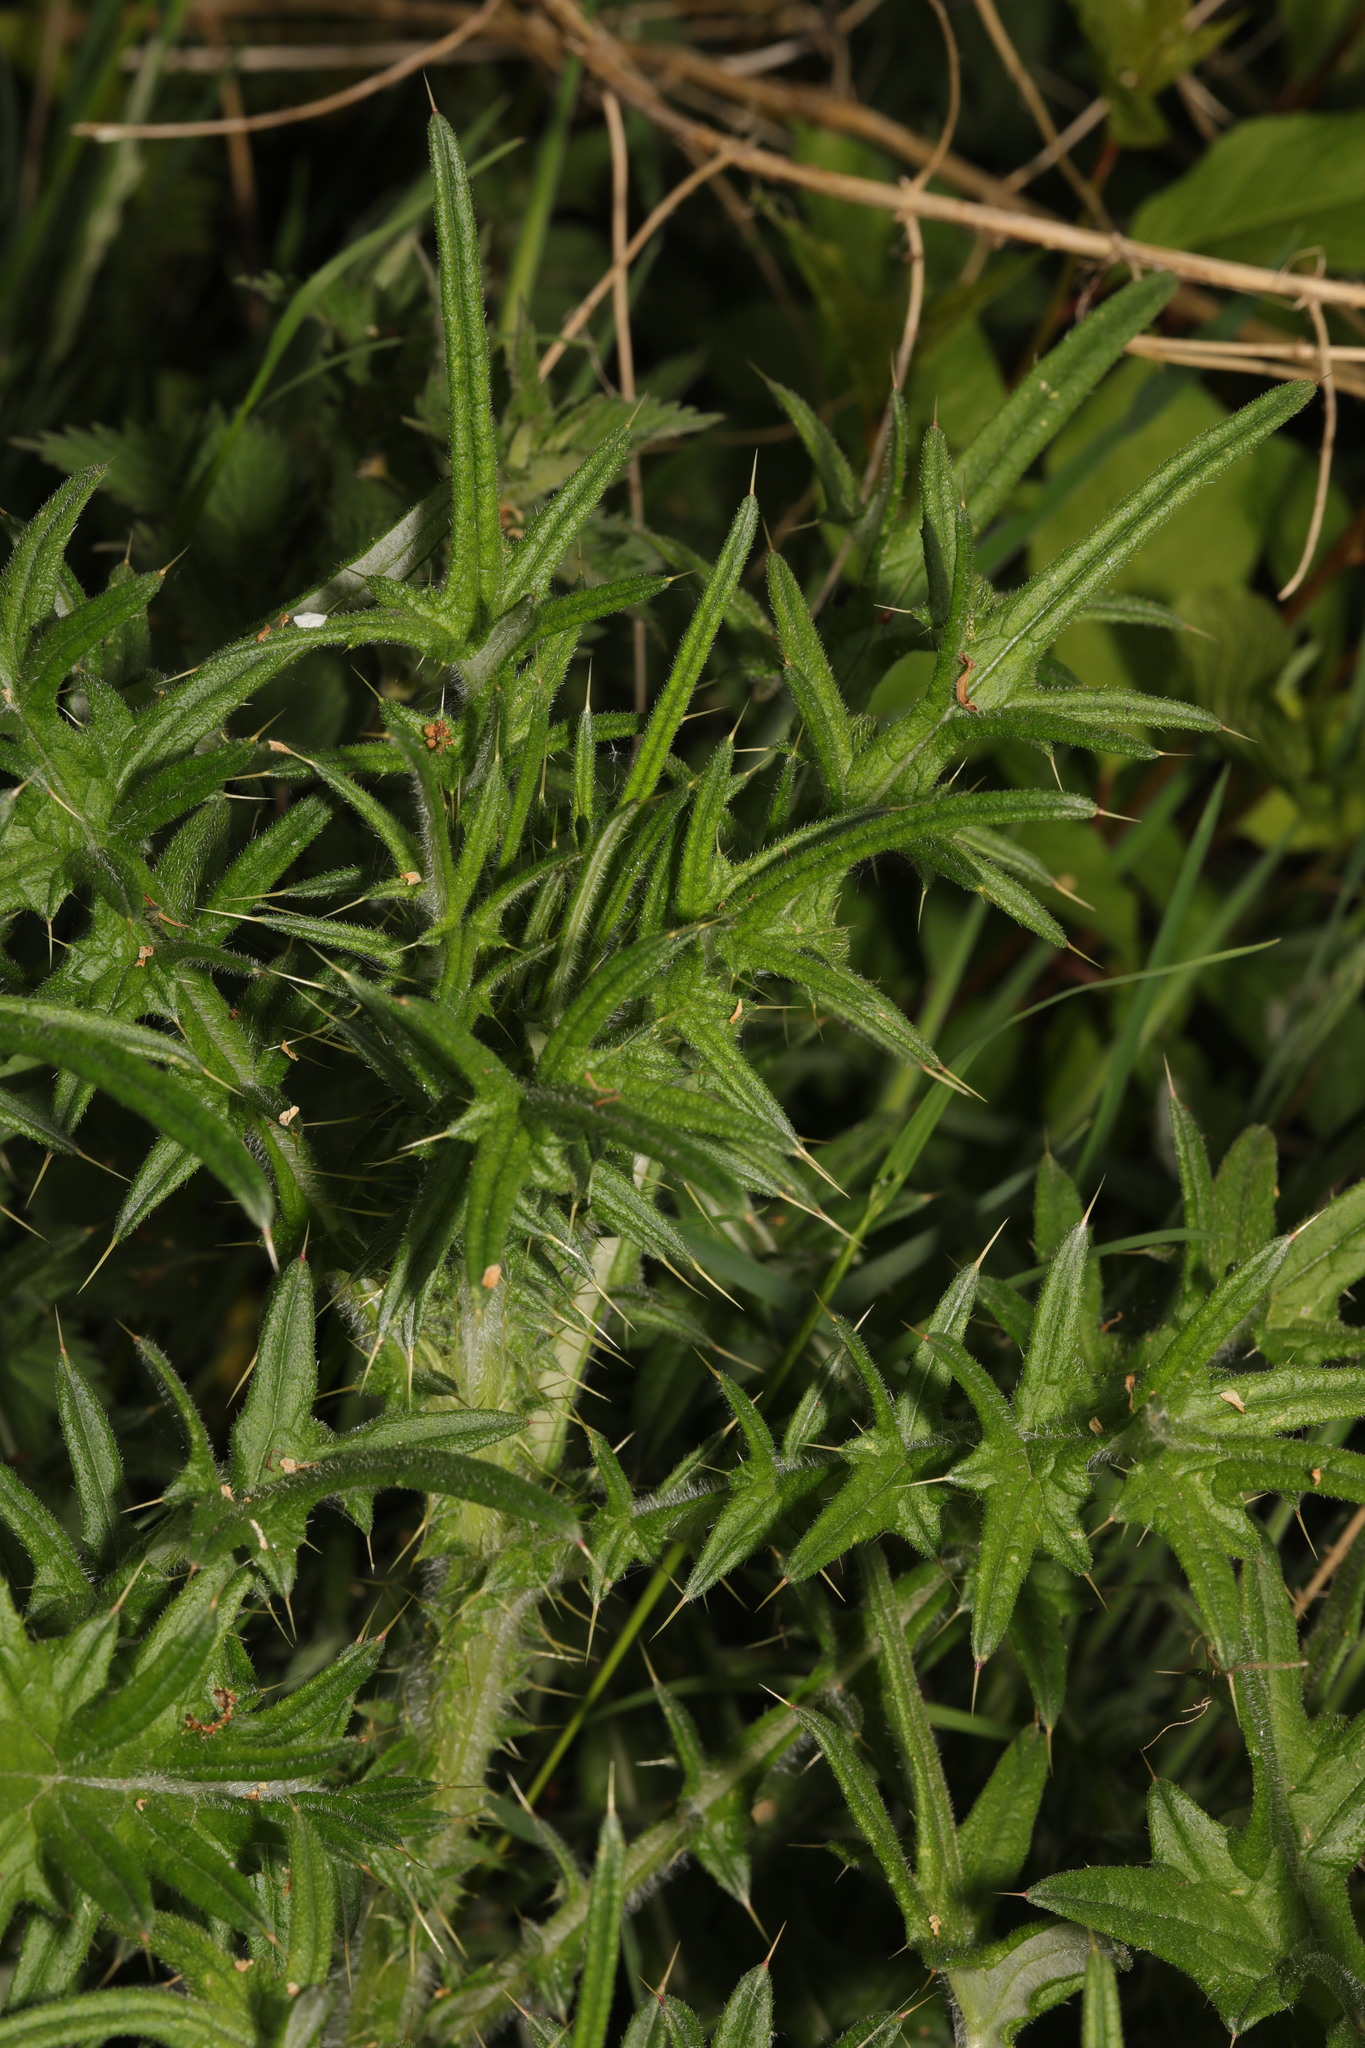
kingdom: Plantae
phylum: Tracheophyta
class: Magnoliopsida
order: Asterales
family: Asteraceae
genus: Cirsium
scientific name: Cirsium vulgare
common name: Bull thistle
